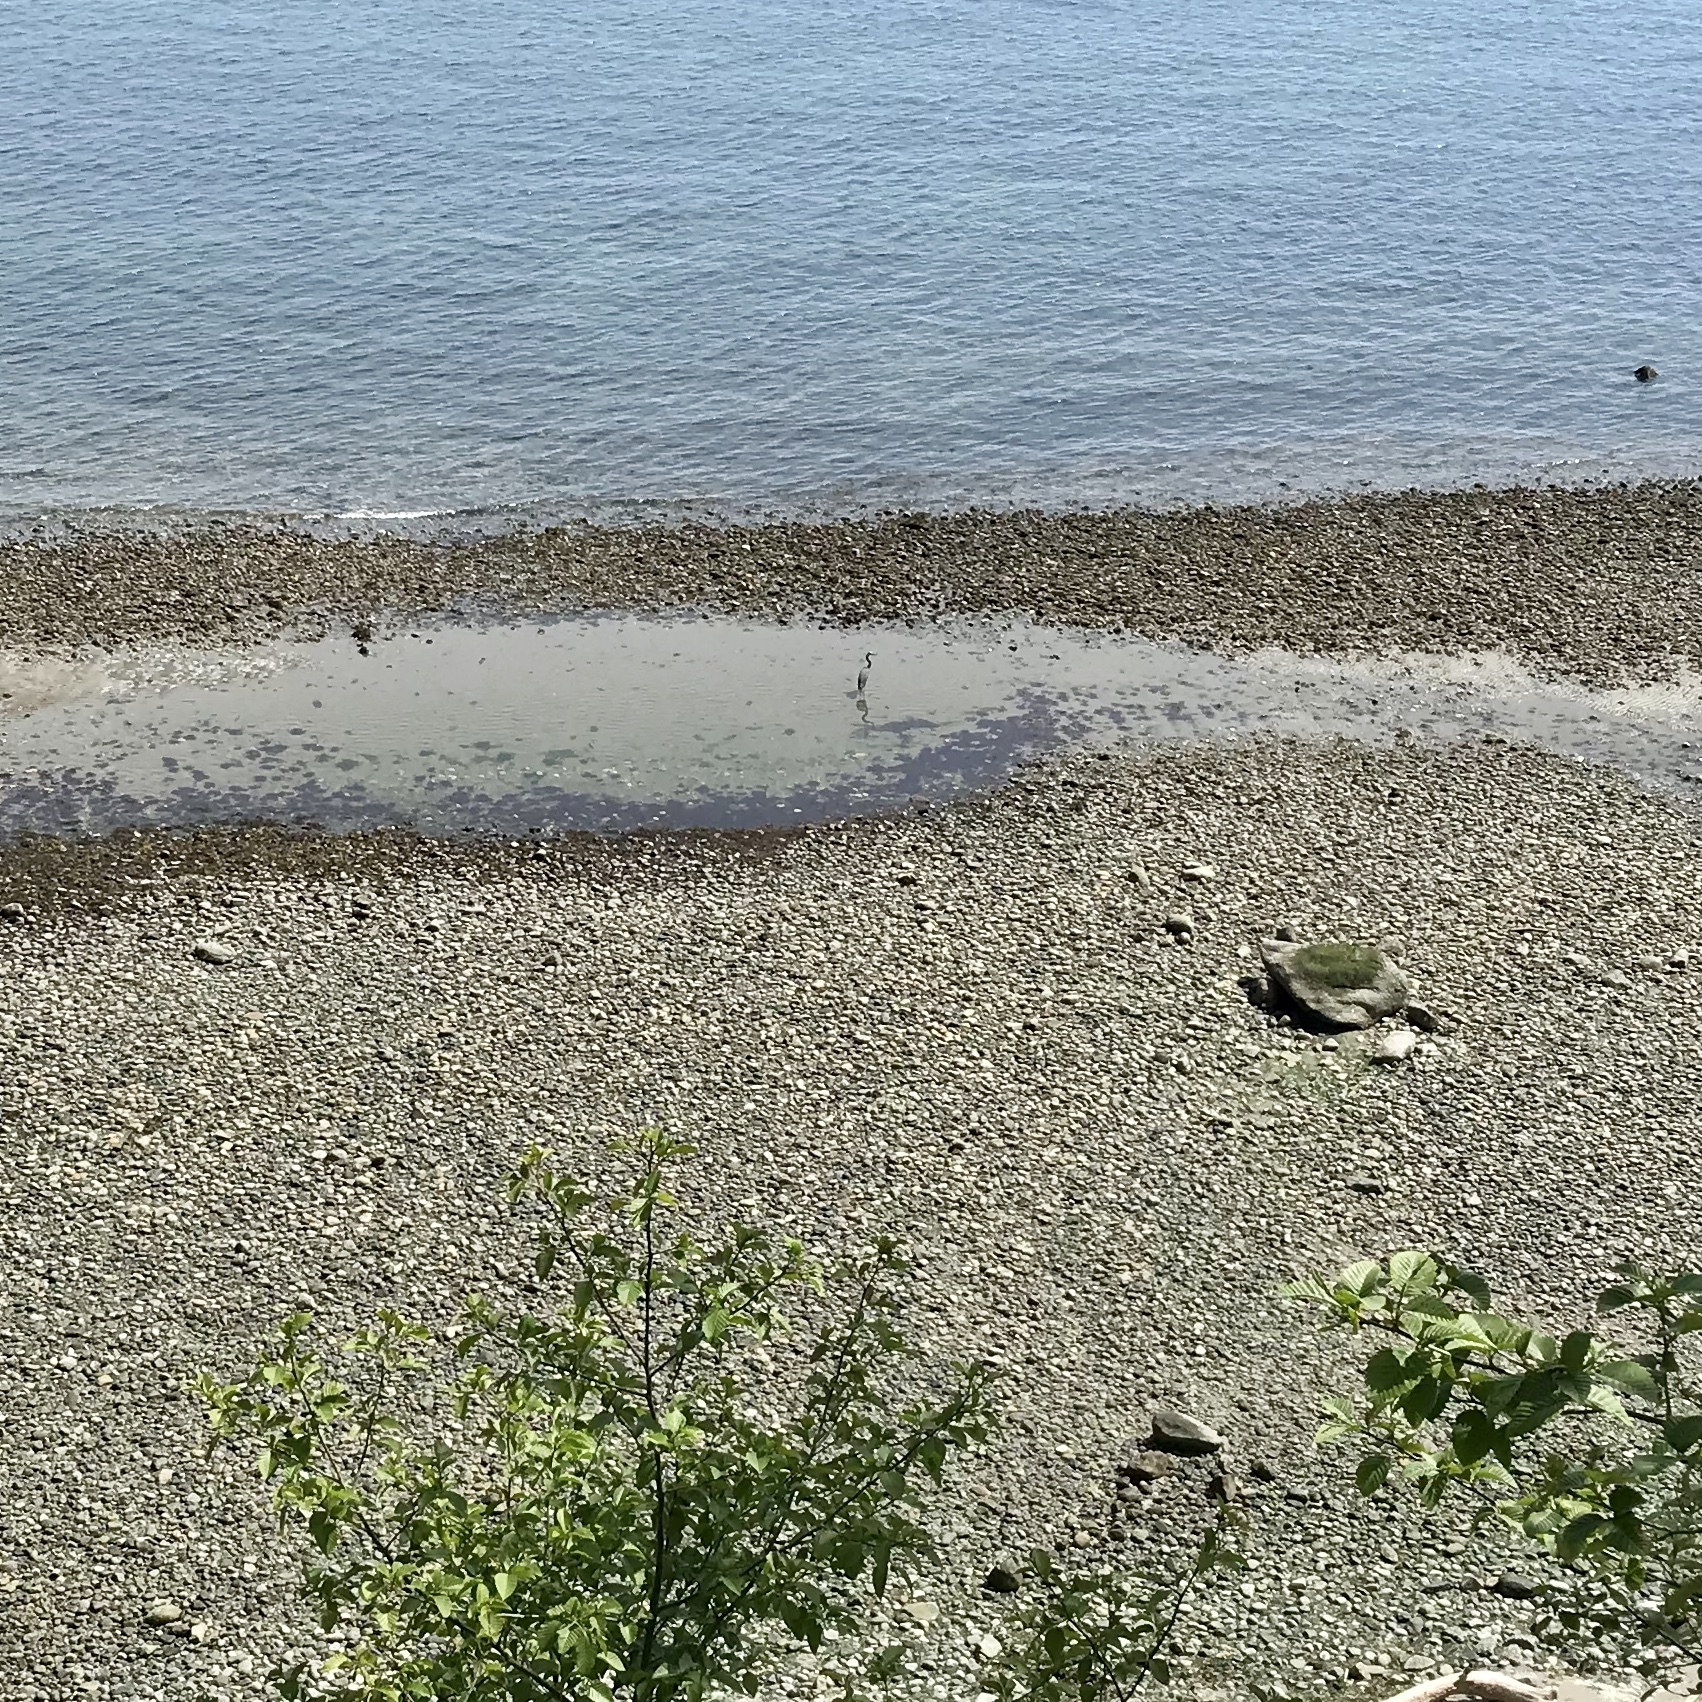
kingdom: Animalia
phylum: Chordata
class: Aves
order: Pelecaniformes
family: Ardeidae
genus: Ardea
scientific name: Ardea herodias
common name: Great blue heron
